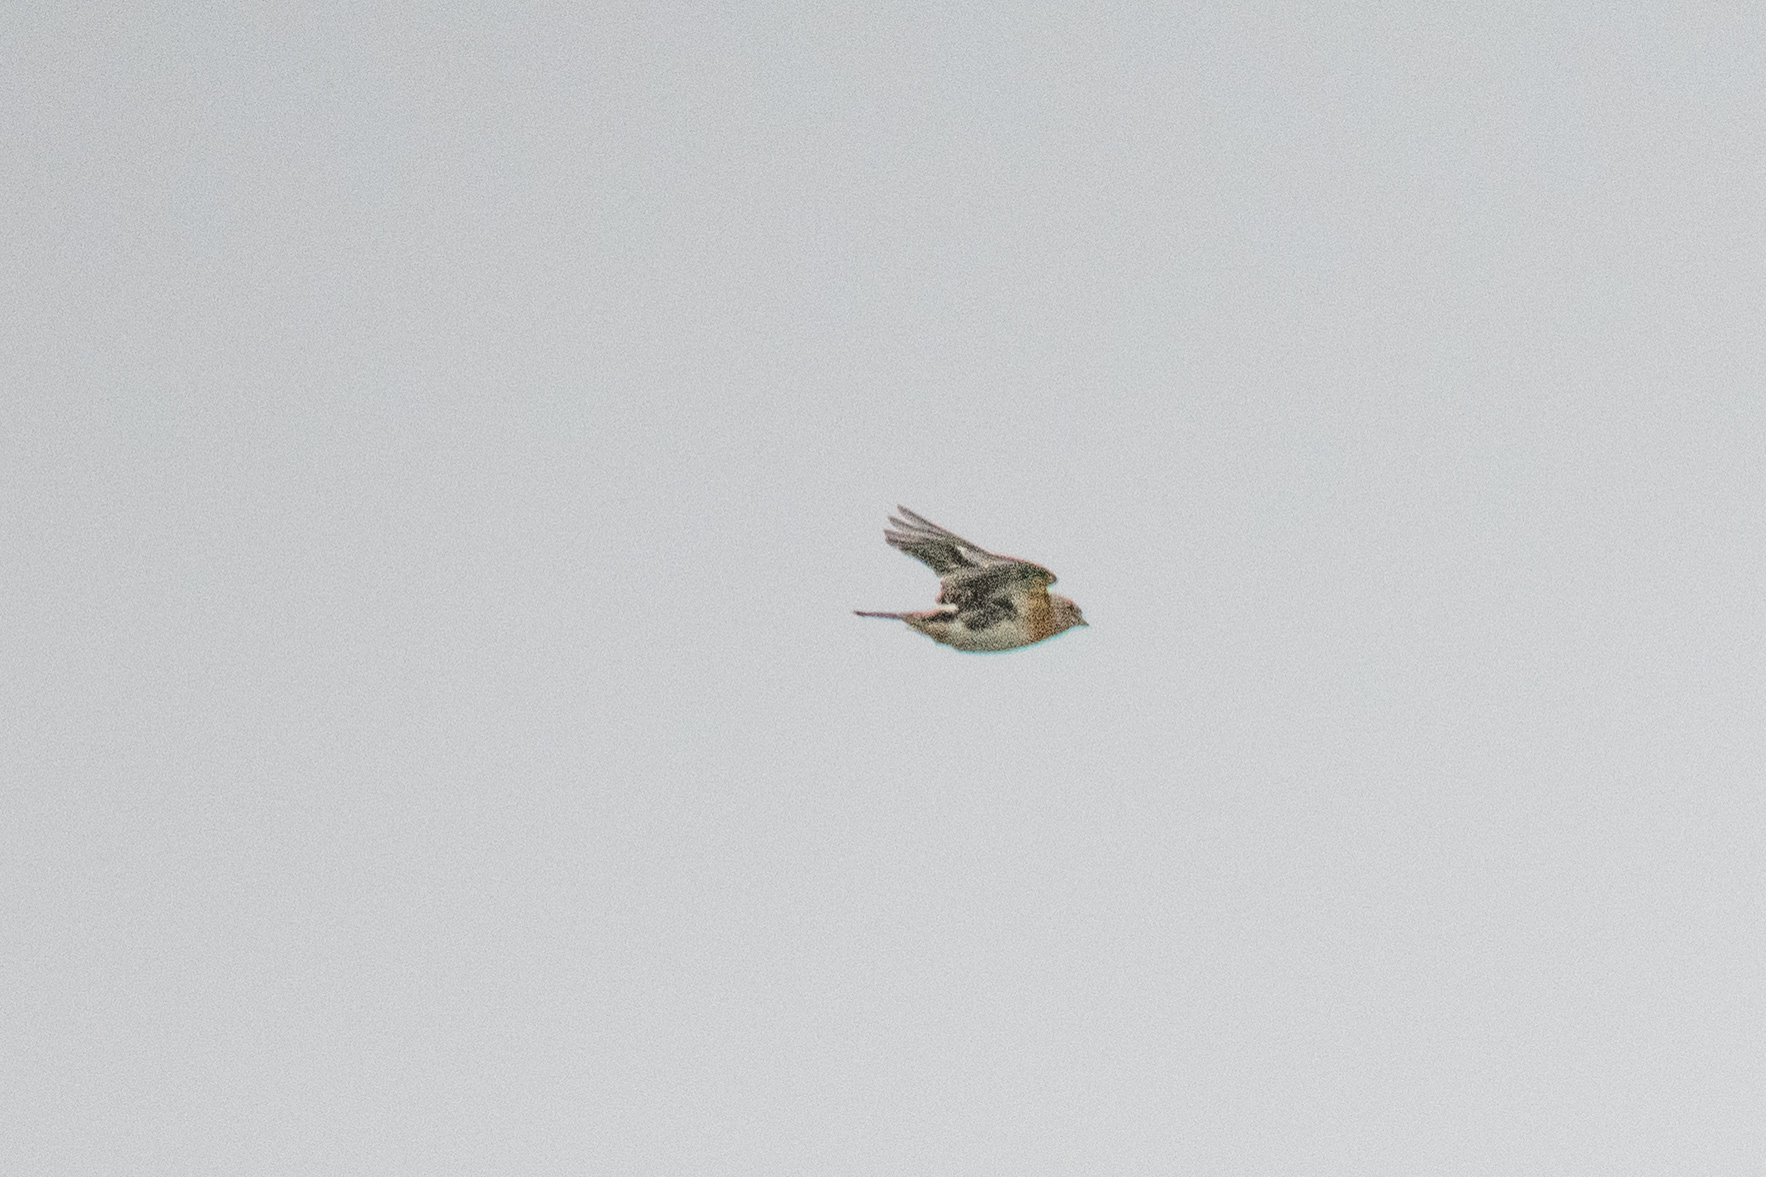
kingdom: Animalia
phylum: Chordata
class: Aves
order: Passeriformes
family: Fringillidae
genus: Fringilla
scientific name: Fringilla montifringilla
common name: Brambling
